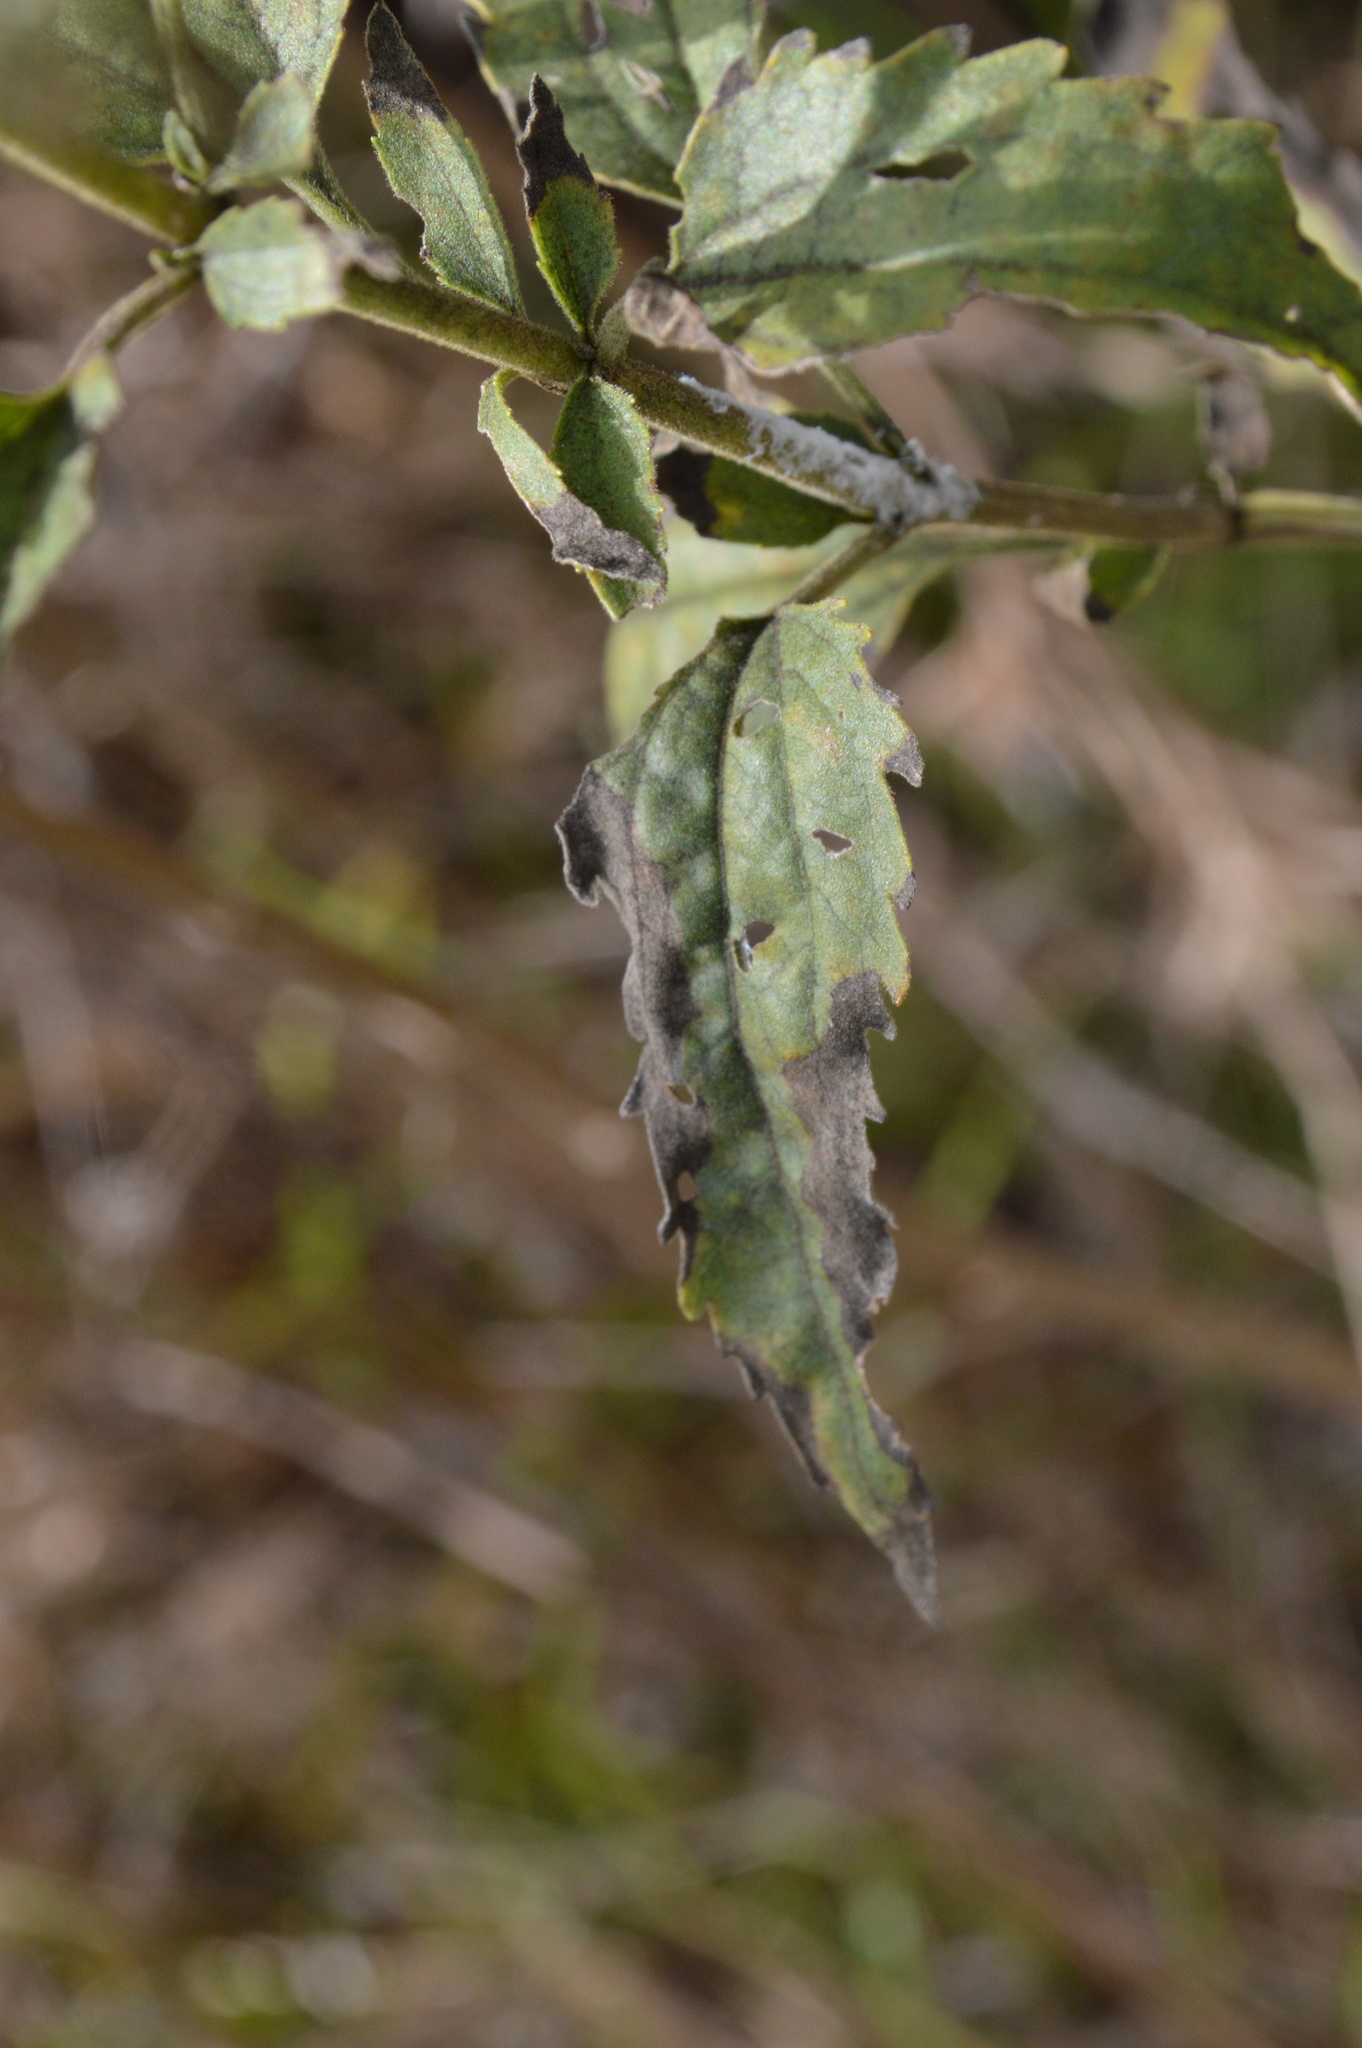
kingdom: Plantae
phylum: Tracheophyta
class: Magnoliopsida
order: Asterales
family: Asteraceae
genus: Eupatorium
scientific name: Eupatorium serotinum
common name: Late boneset
